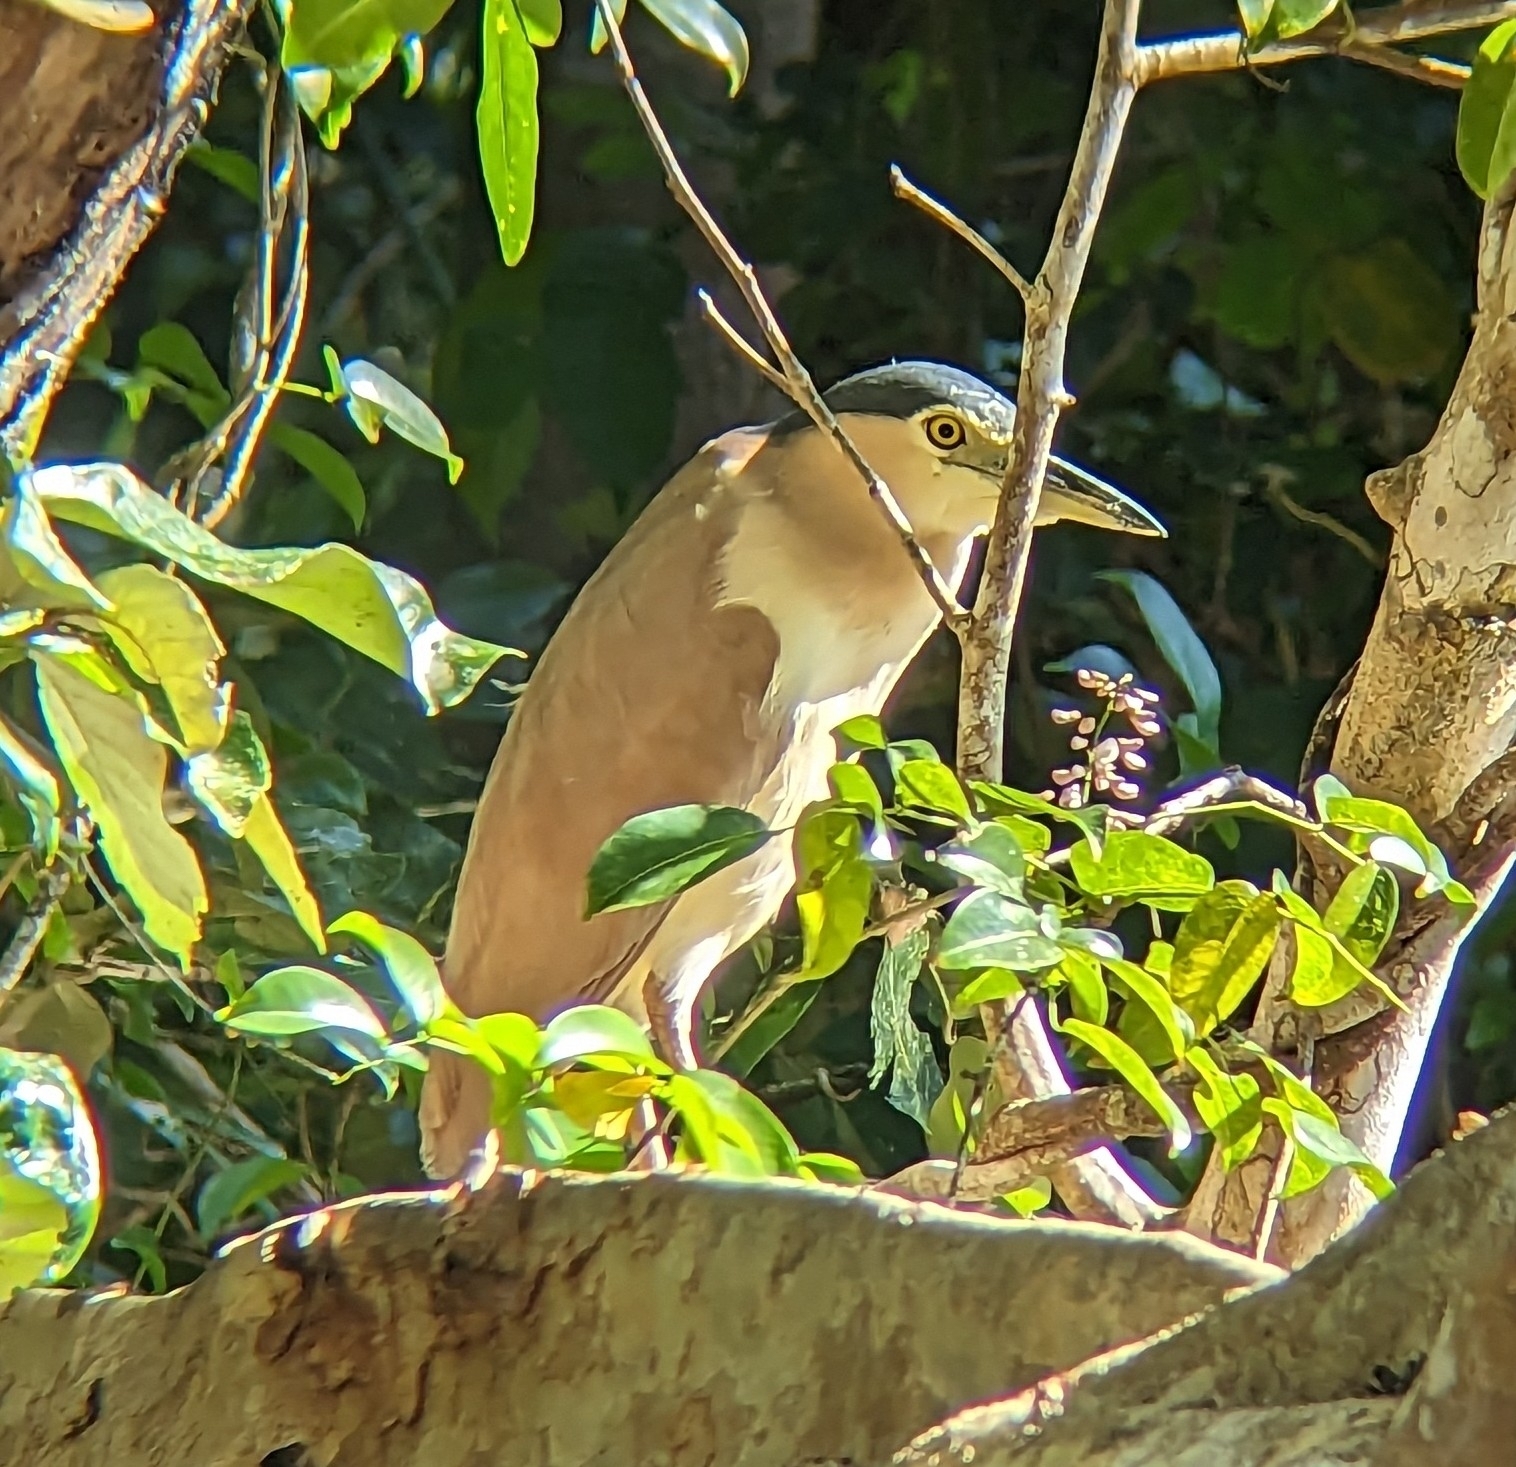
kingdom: Animalia
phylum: Chordata
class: Aves
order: Pelecaniformes
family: Ardeidae
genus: Nycticorax
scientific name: Nycticorax caledonicus
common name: Rufous night-heron
